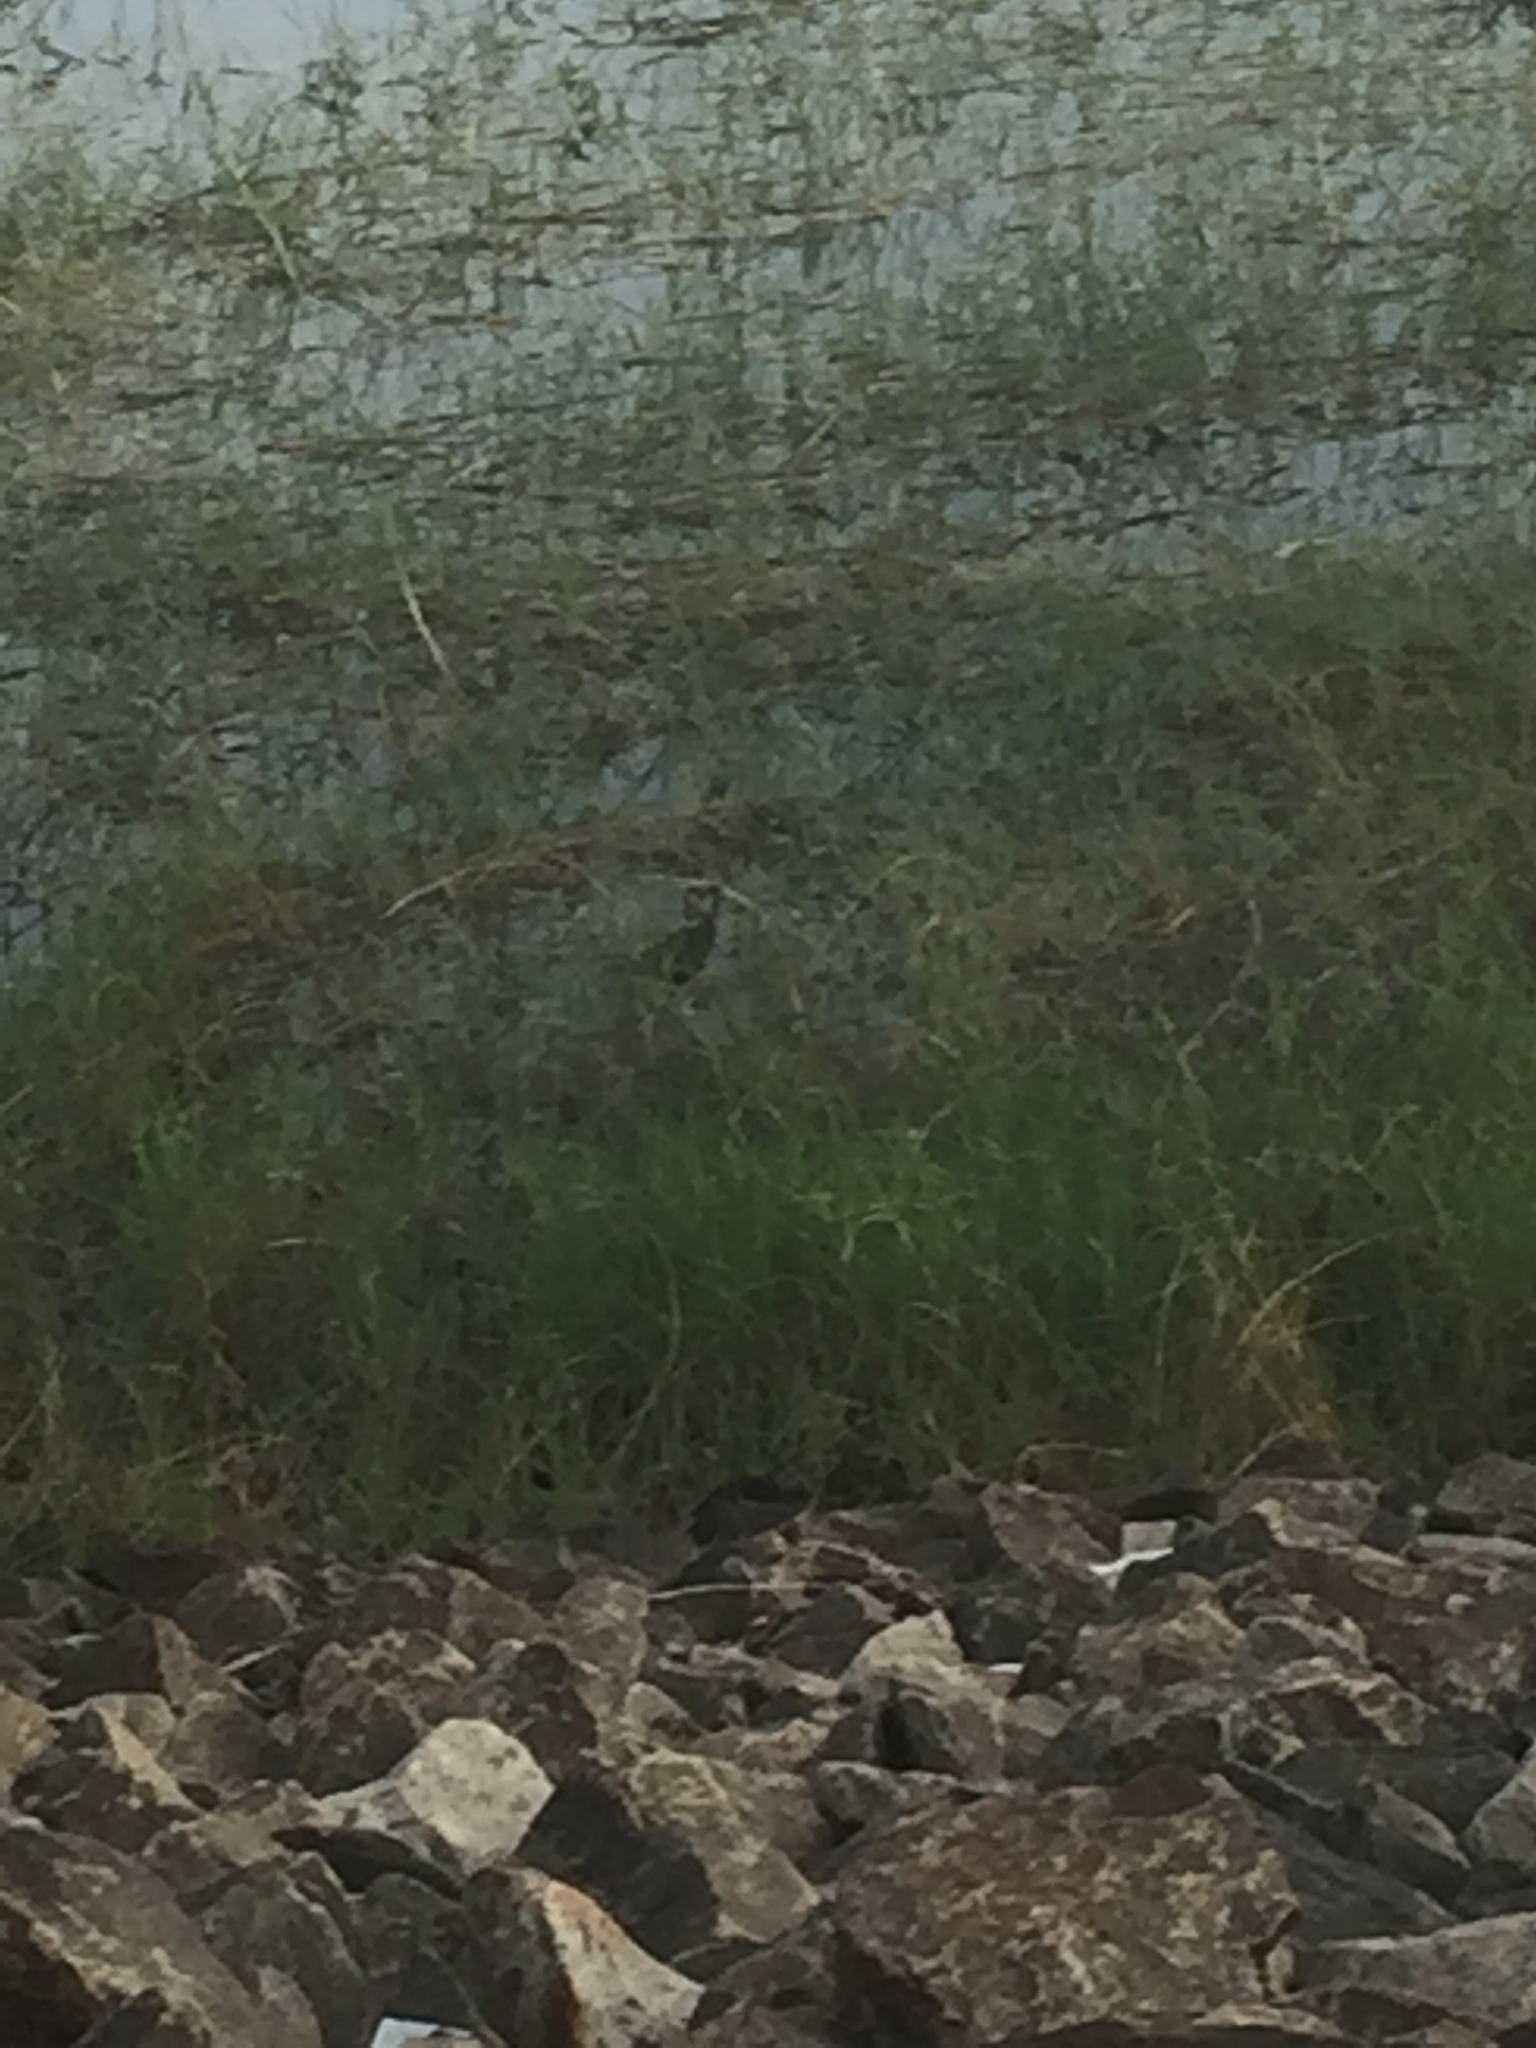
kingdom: Animalia
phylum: Chordata
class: Aves
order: Gruiformes
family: Rallidae
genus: Amaurornis
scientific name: Amaurornis phoenicurus
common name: White-breasted waterhen
